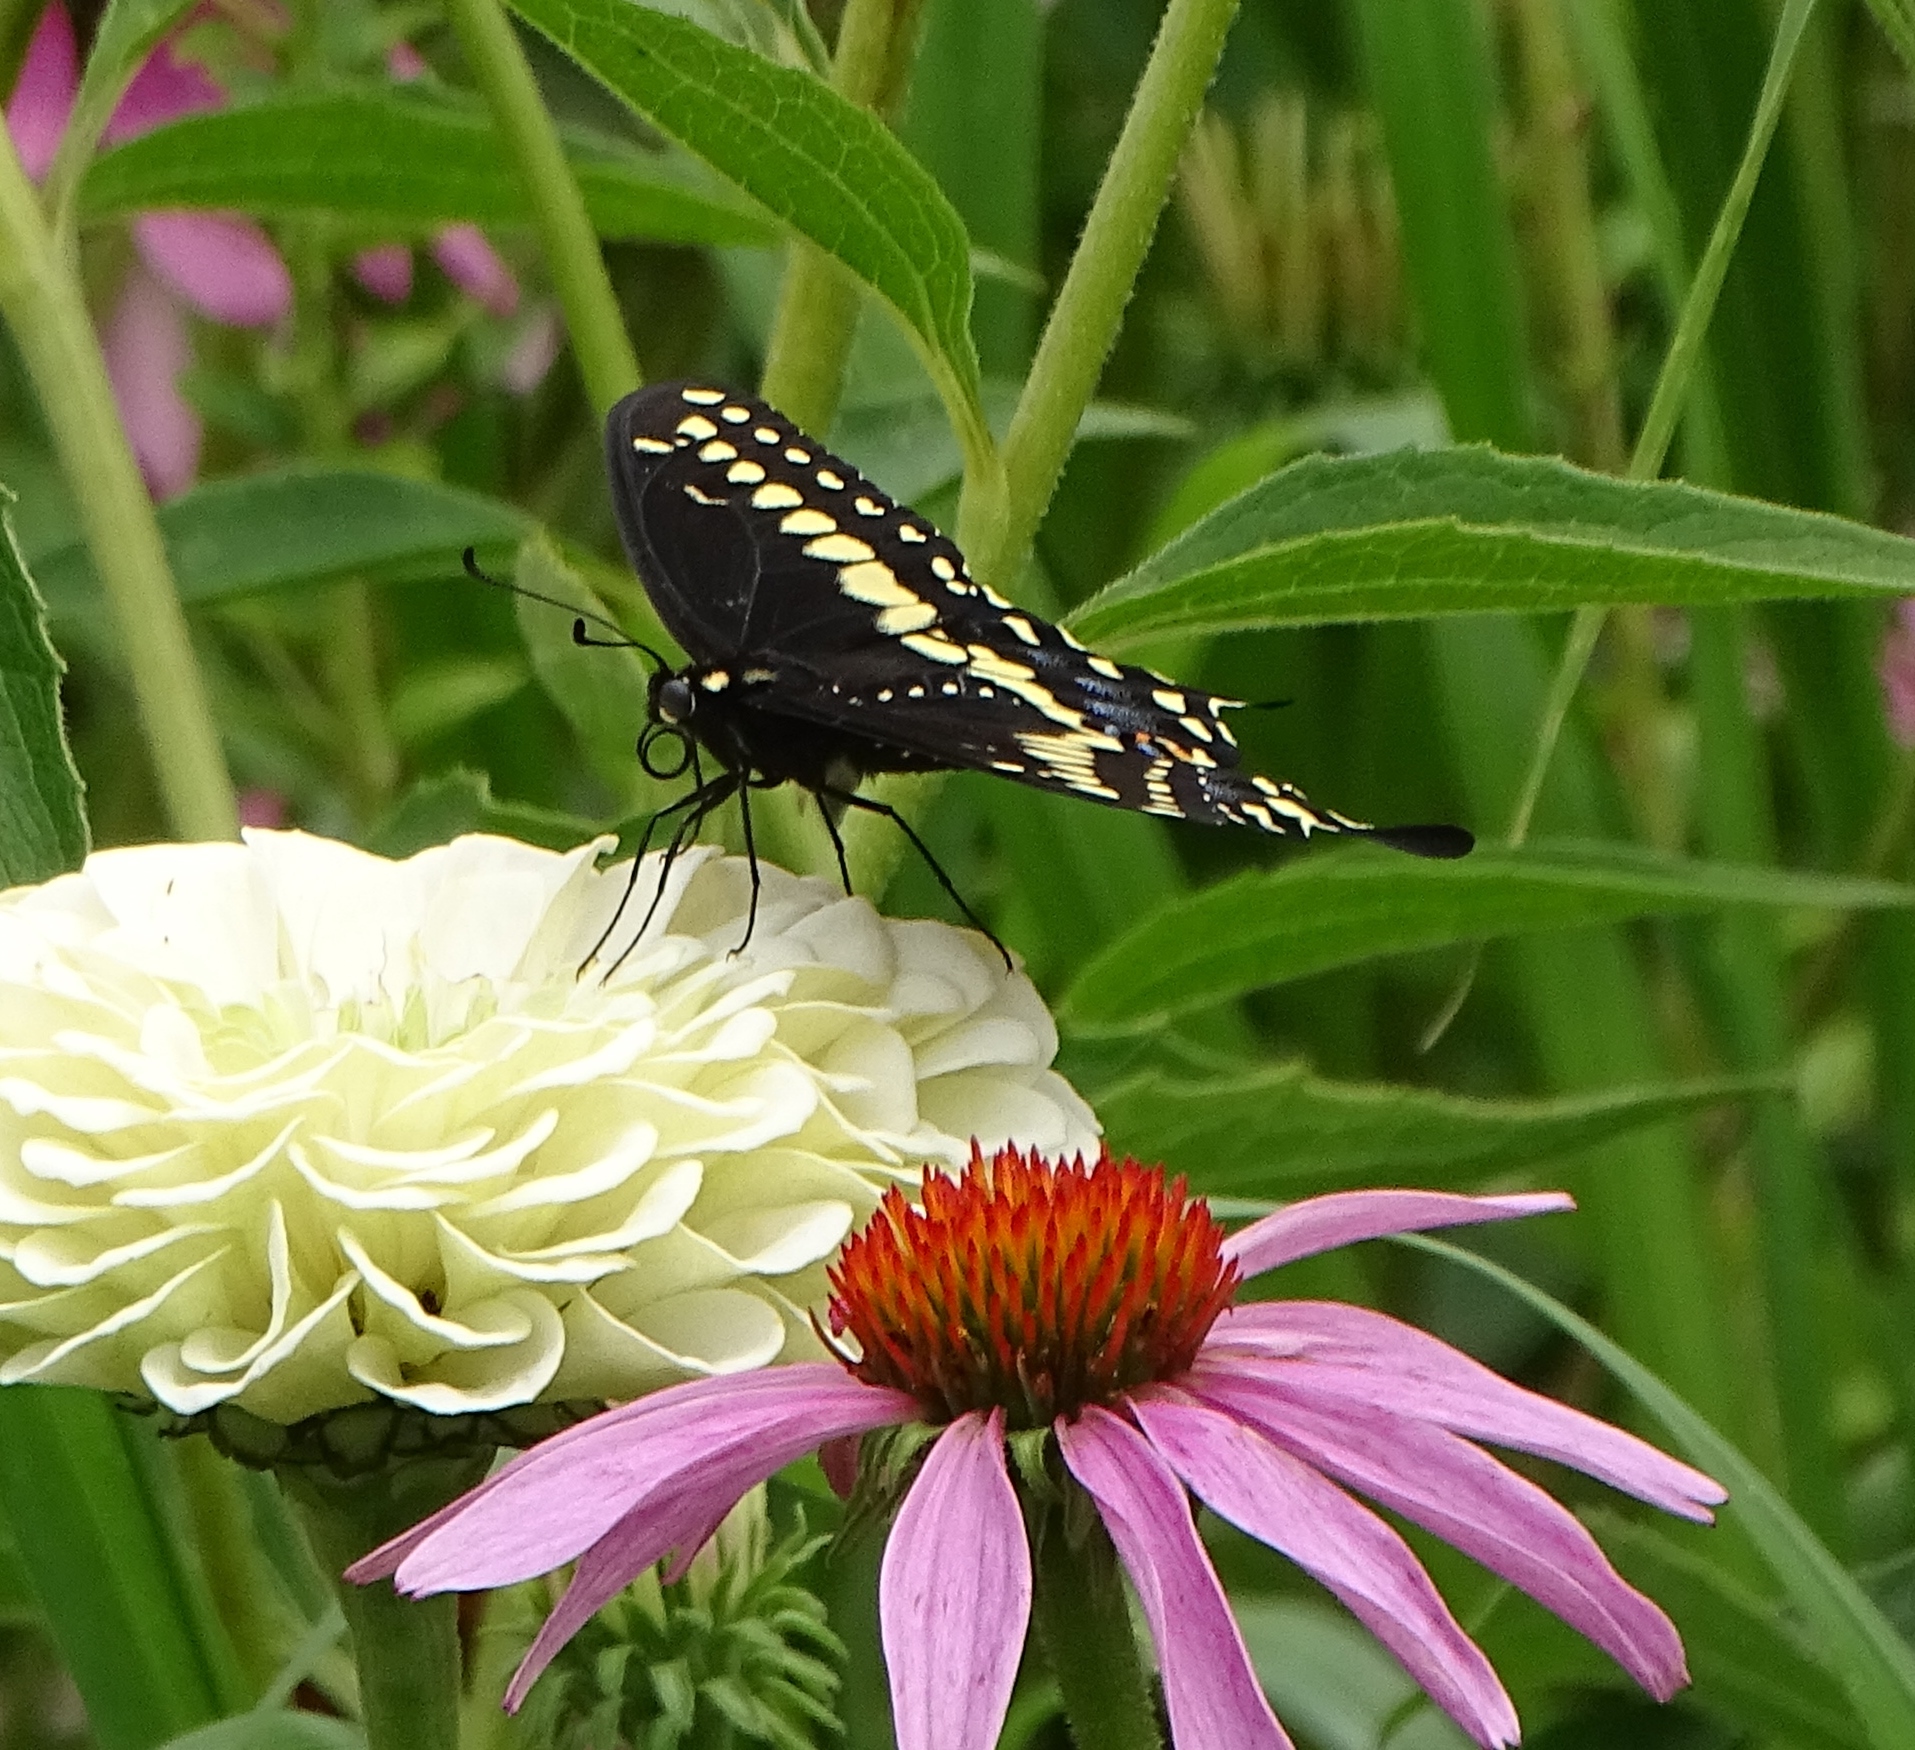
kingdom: Animalia
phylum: Arthropoda
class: Insecta
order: Lepidoptera
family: Papilionidae
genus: Papilio
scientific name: Papilio polyxenes
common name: Black swallowtail
